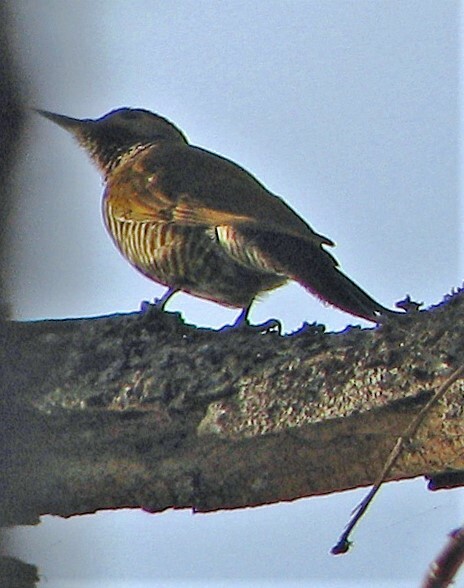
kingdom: Animalia
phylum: Chordata
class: Aves
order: Piciformes
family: Picidae
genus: Veniliornis
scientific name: Veniliornis frontalis
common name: Dot-fronted woodpecker
